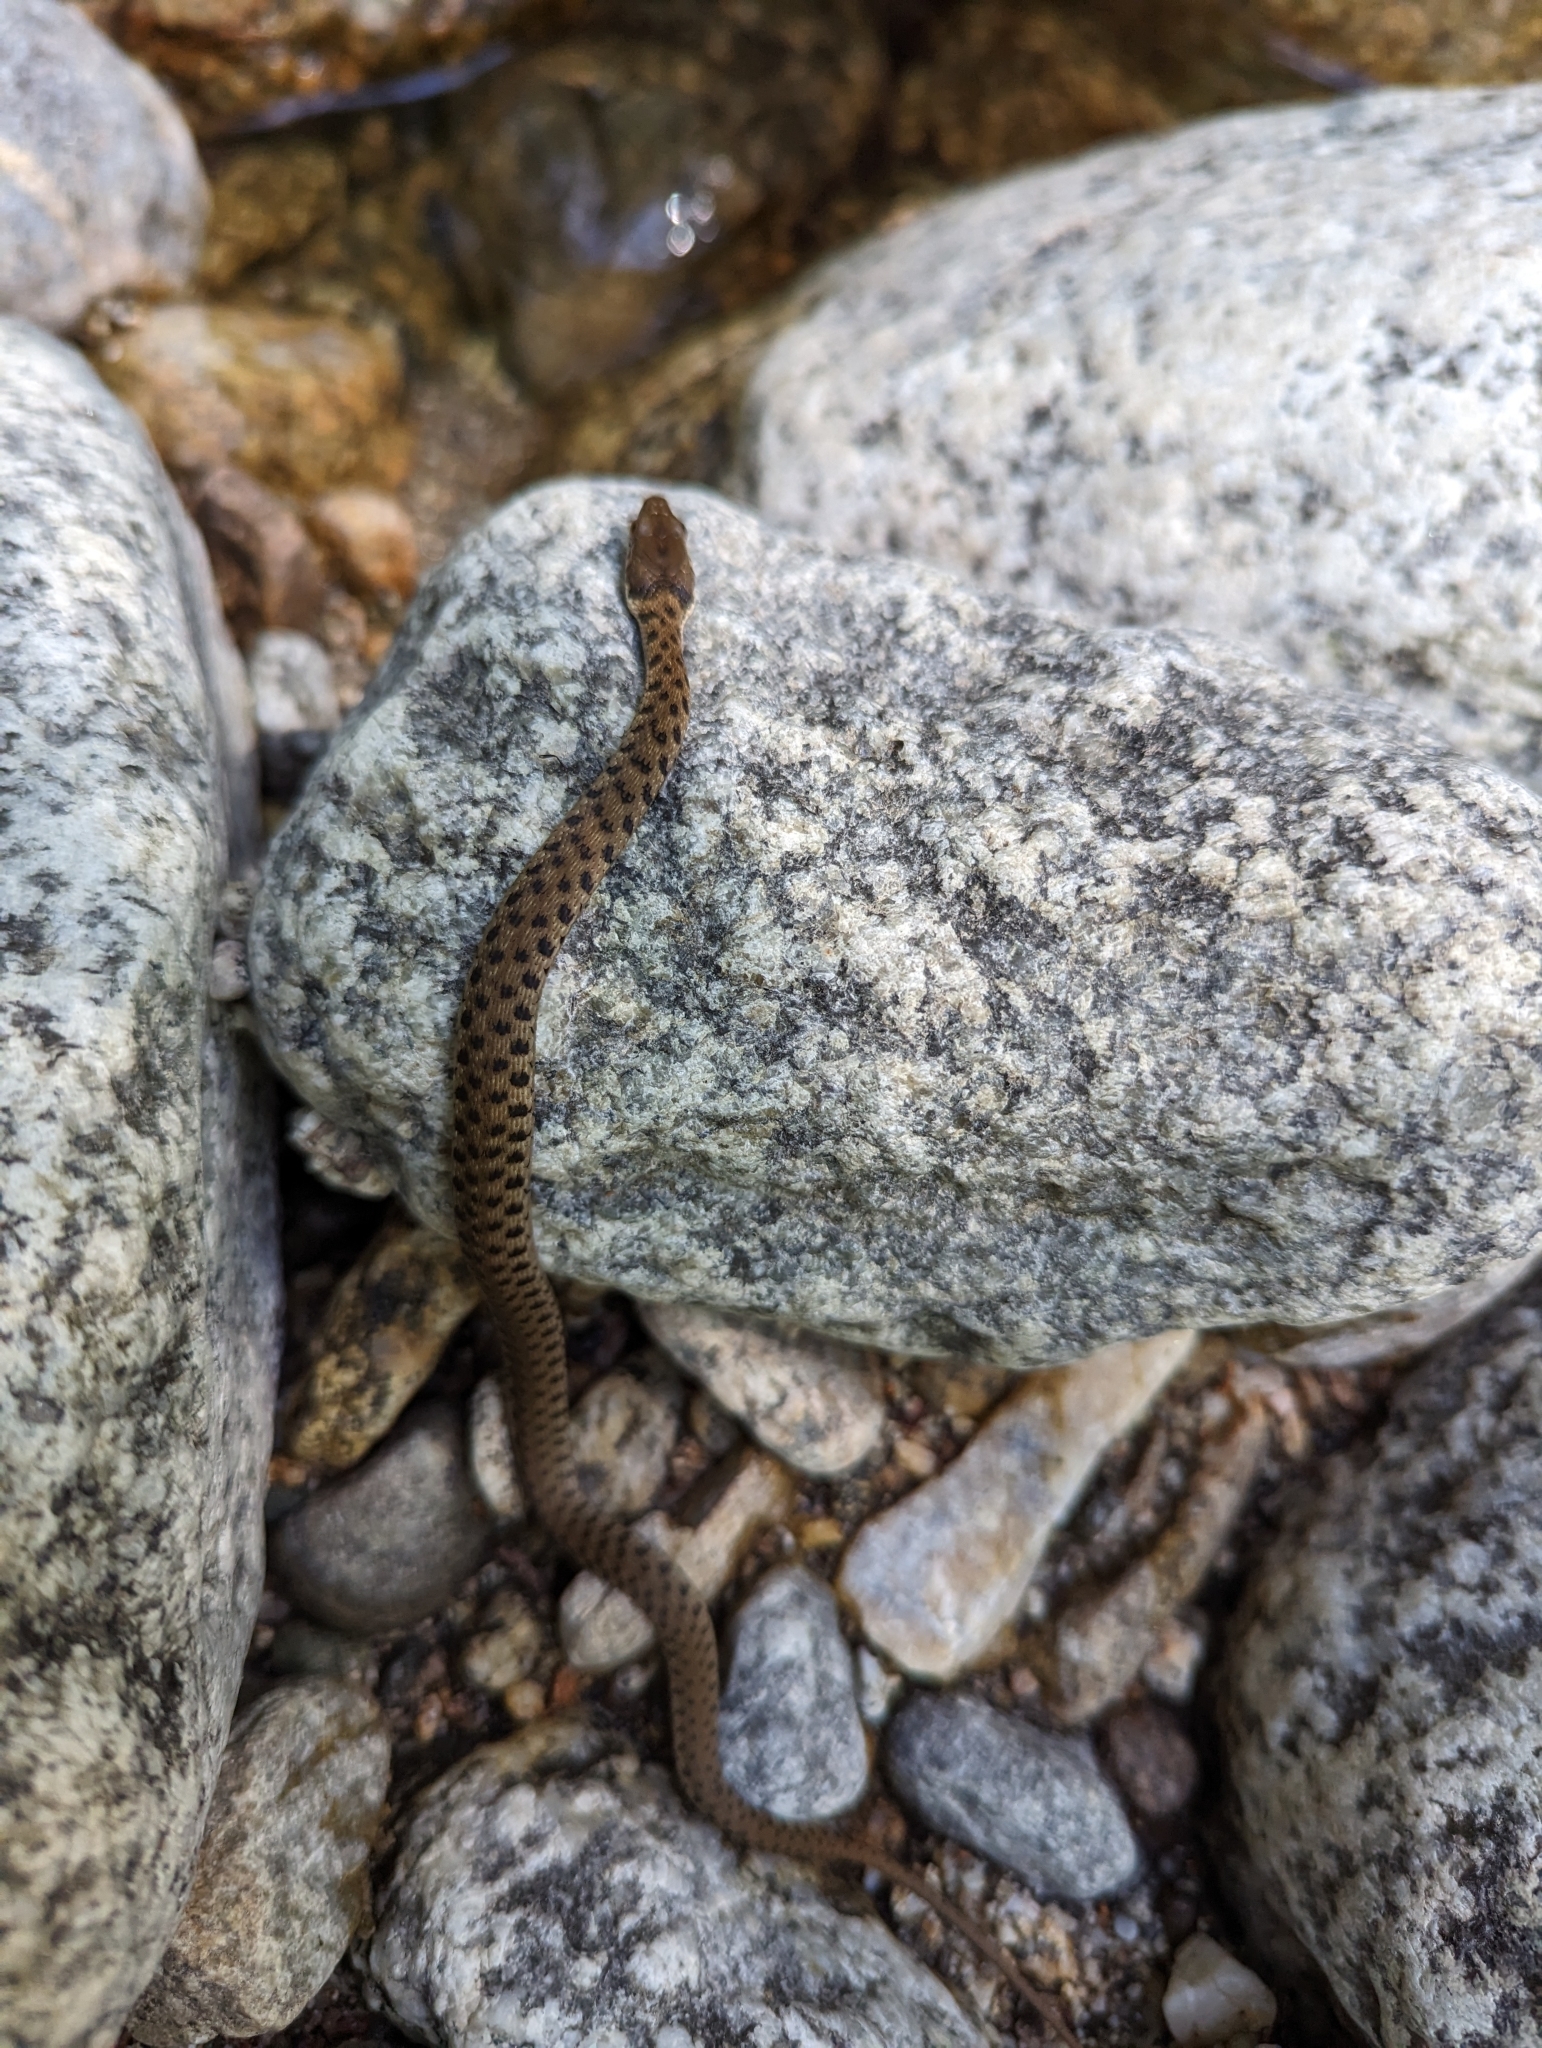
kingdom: Animalia
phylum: Chordata
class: Squamata
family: Colubridae
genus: Thamnophis
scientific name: Thamnophis hammondii
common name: Two-striped garter snake
